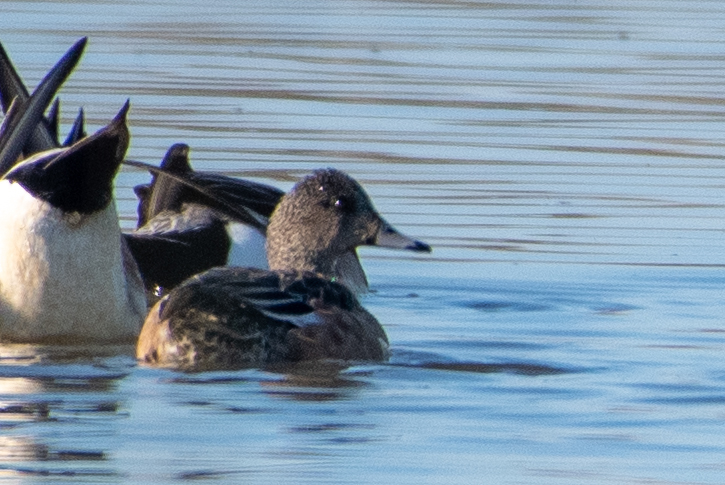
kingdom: Animalia
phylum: Chordata
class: Aves
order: Anseriformes
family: Anatidae
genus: Mareca
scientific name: Mareca americana
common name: American wigeon
